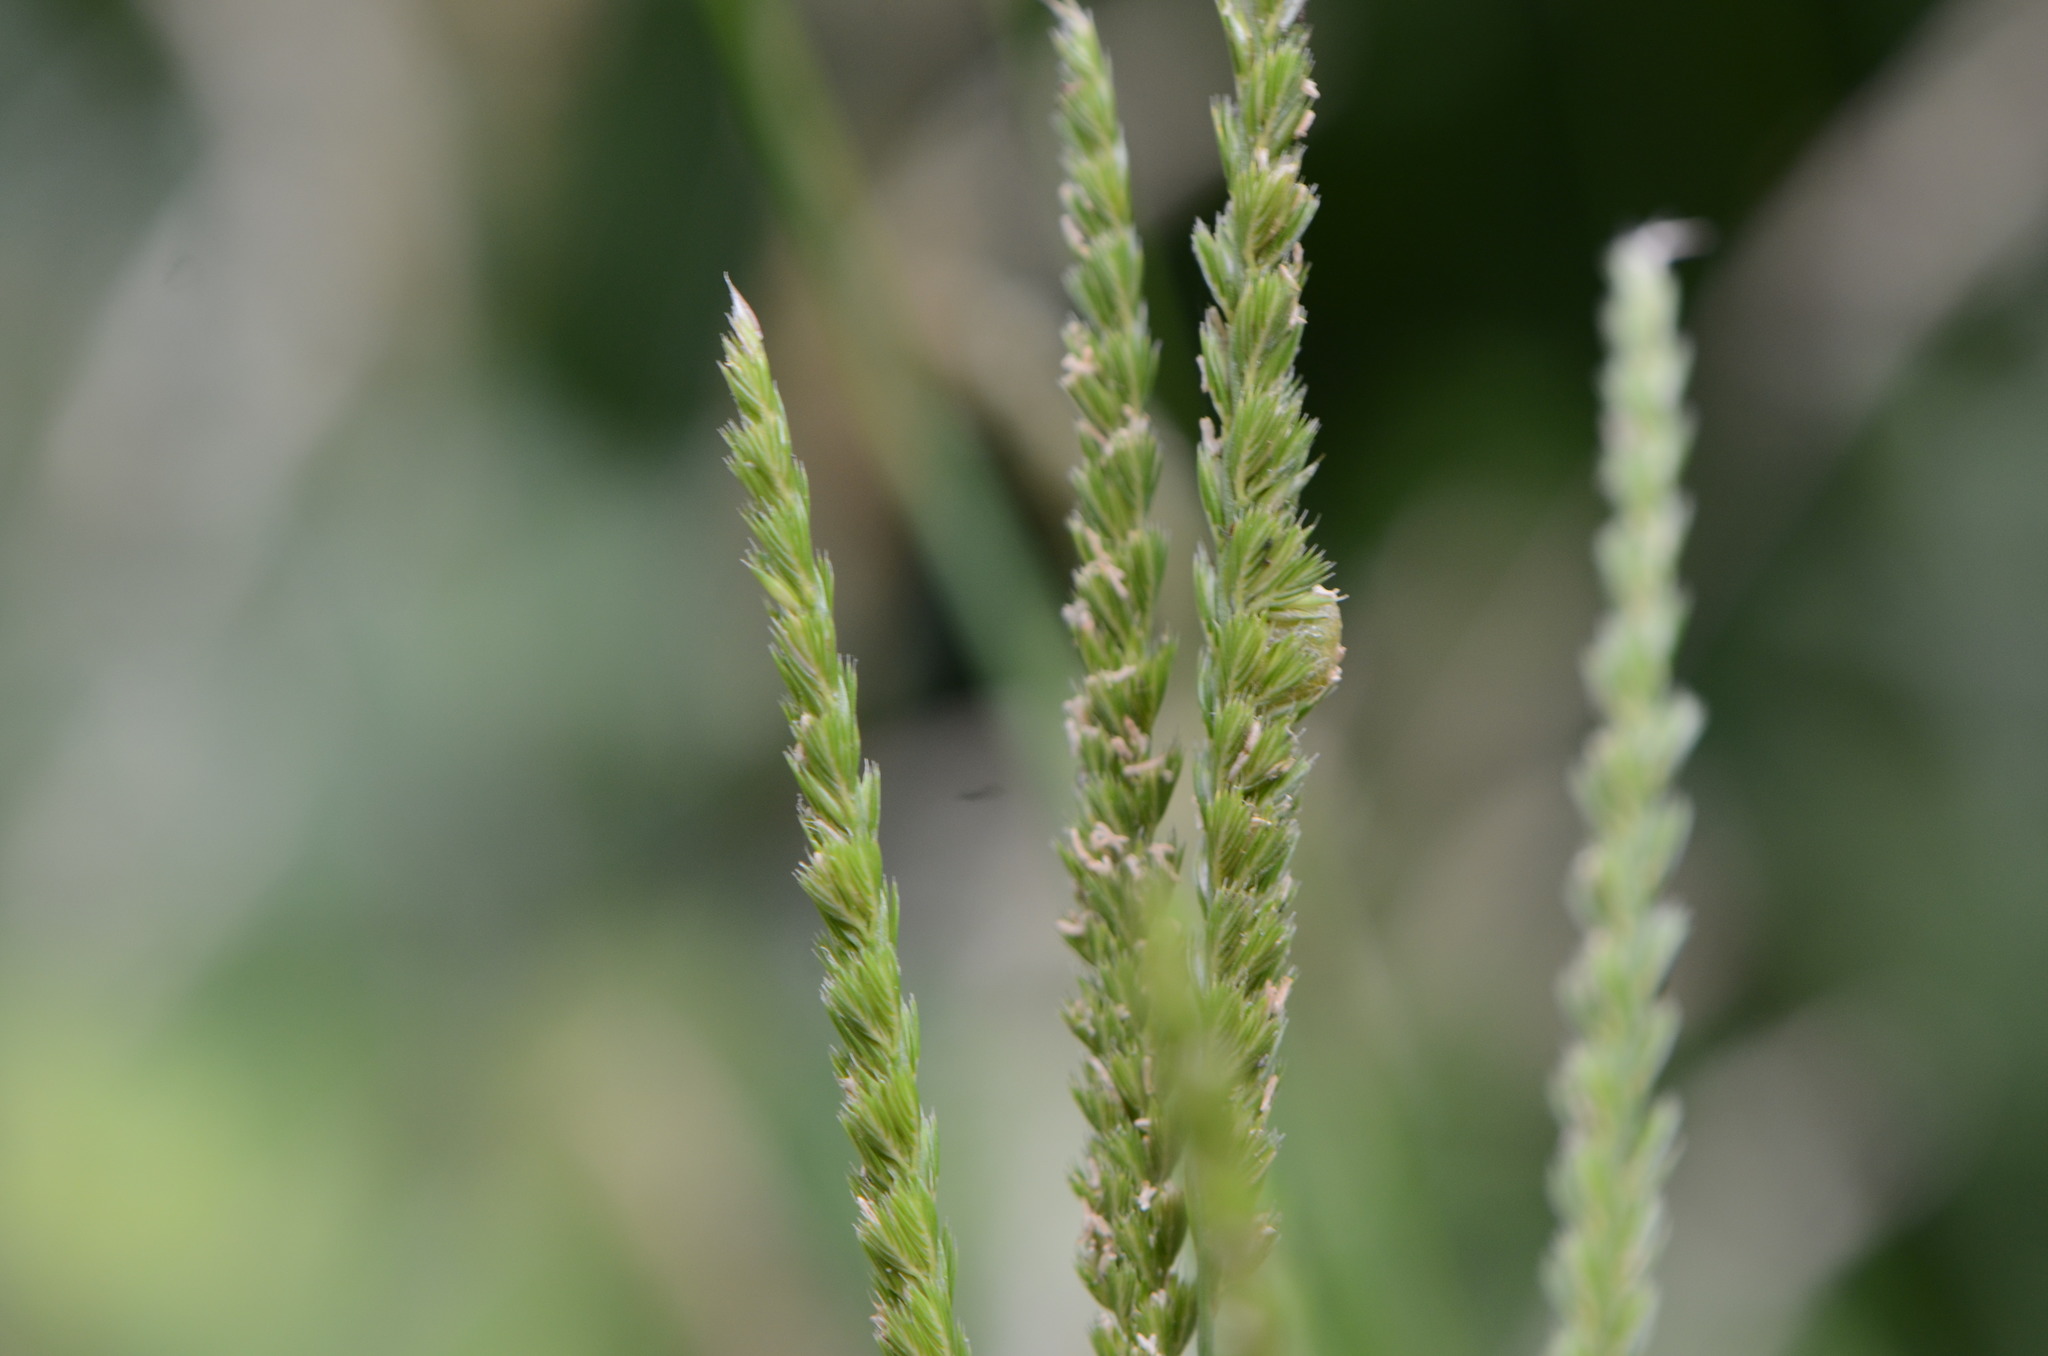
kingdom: Plantae
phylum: Tracheophyta
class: Liliopsida
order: Poales
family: Poaceae
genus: Cynosurus
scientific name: Cynosurus cristatus
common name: Crested dog's-tail
